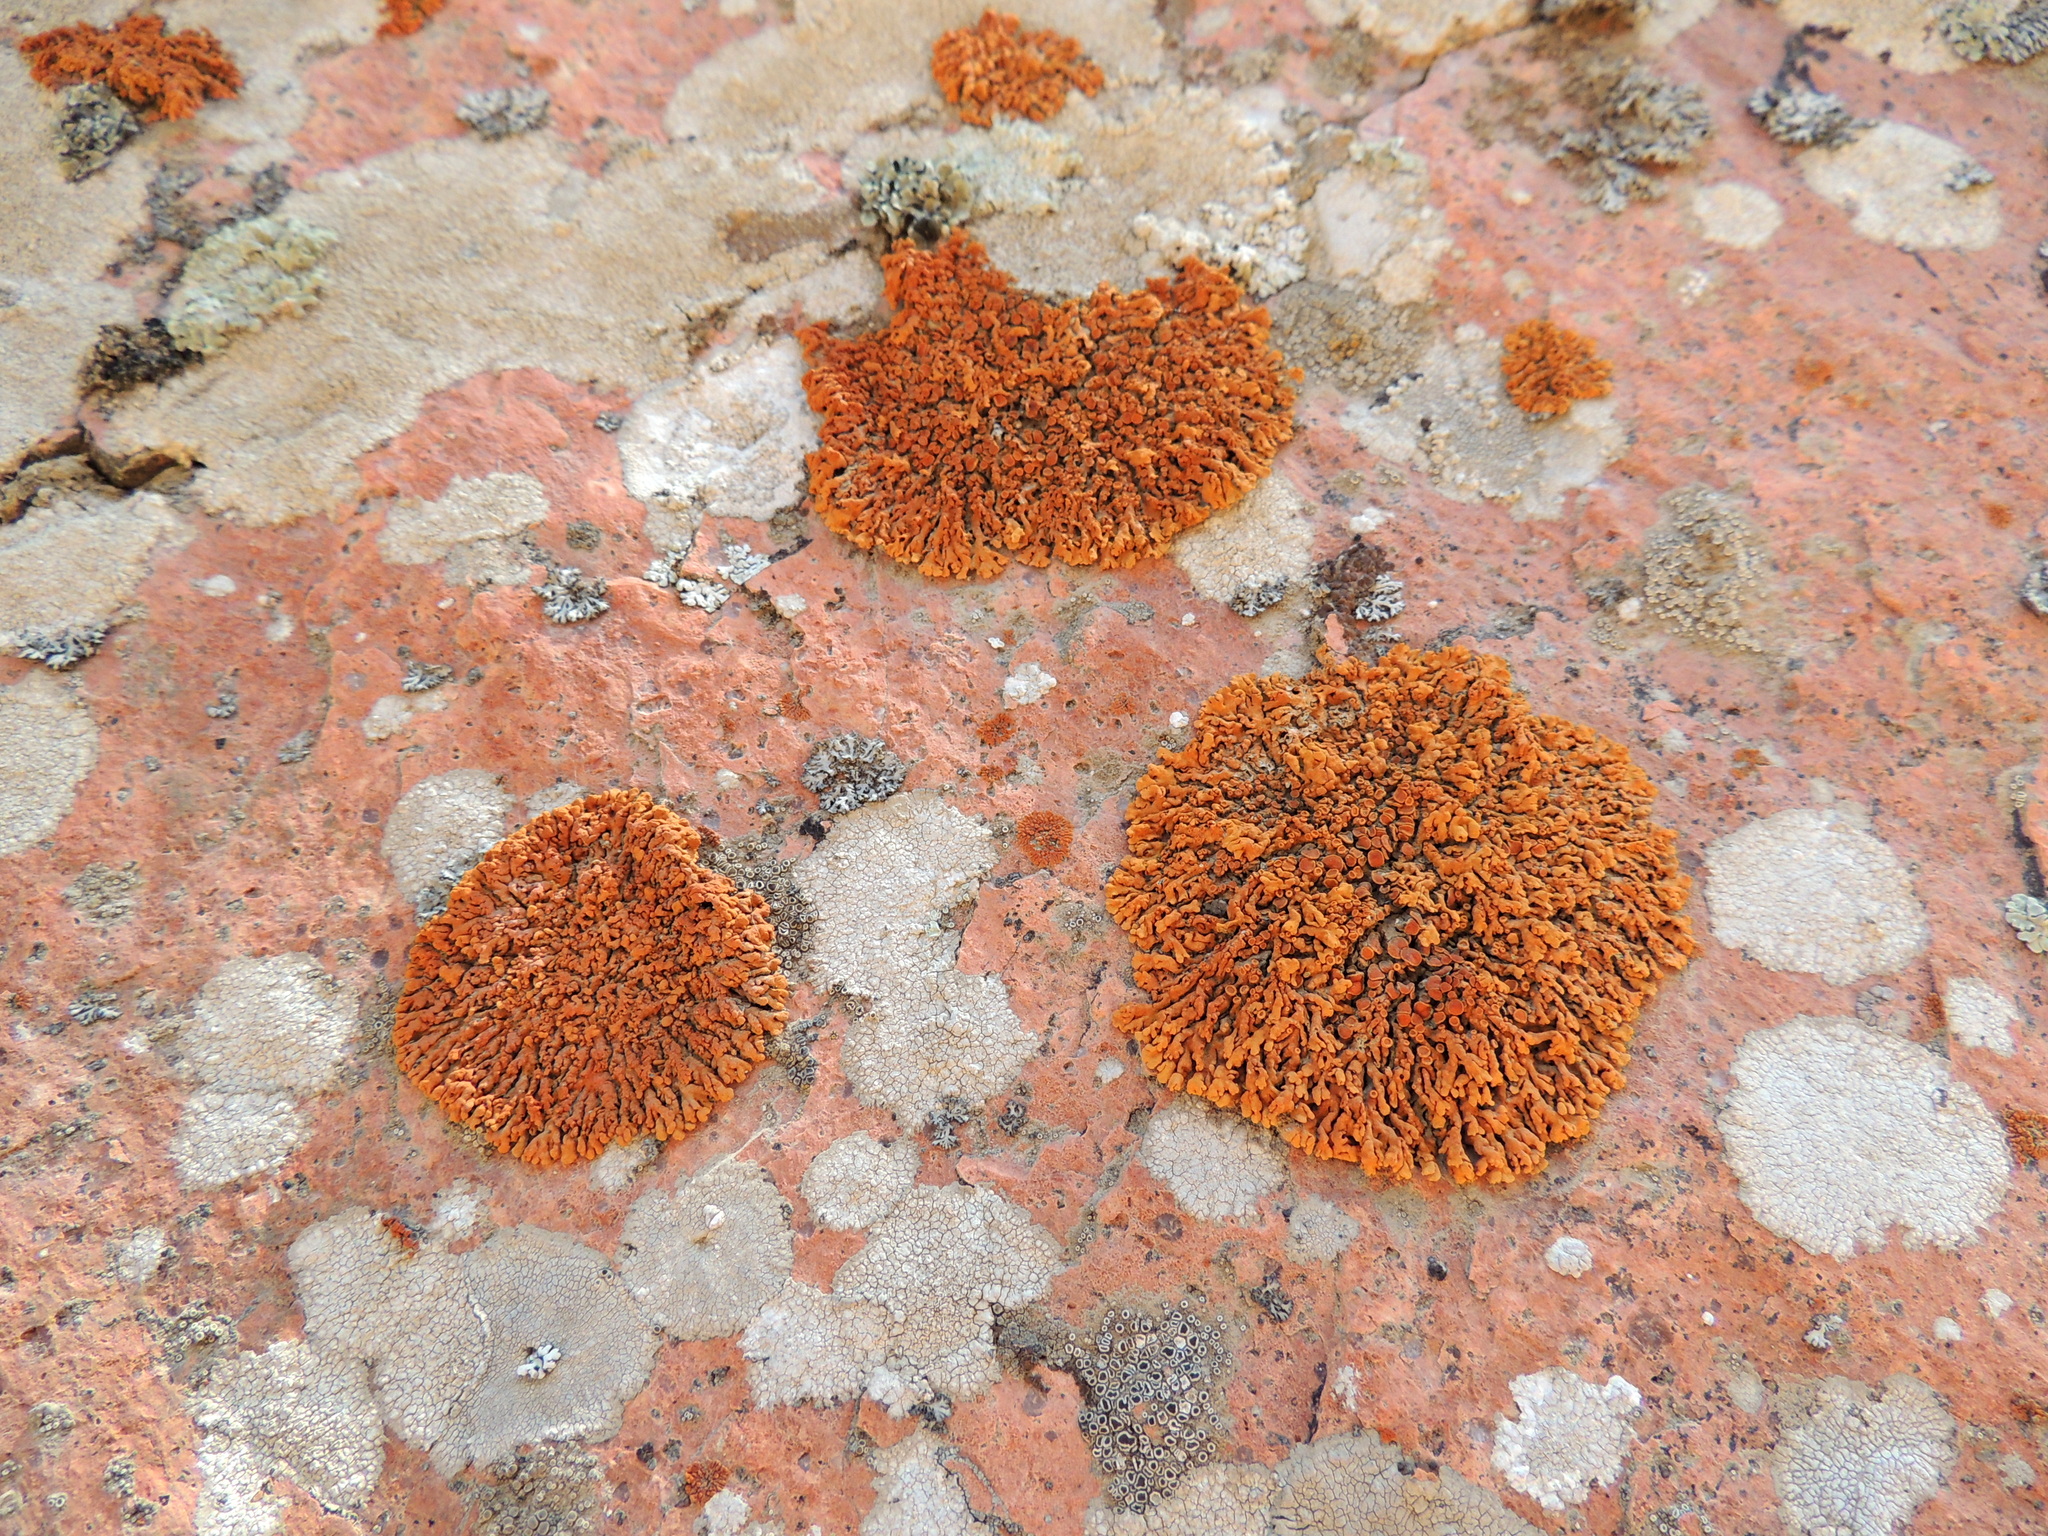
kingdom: Fungi
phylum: Ascomycota
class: Lecanoromycetes
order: Teloschistales
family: Teloschistaceae
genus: Xanthoria
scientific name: Xanthoria elegans
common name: Elegant sunburst lichen
